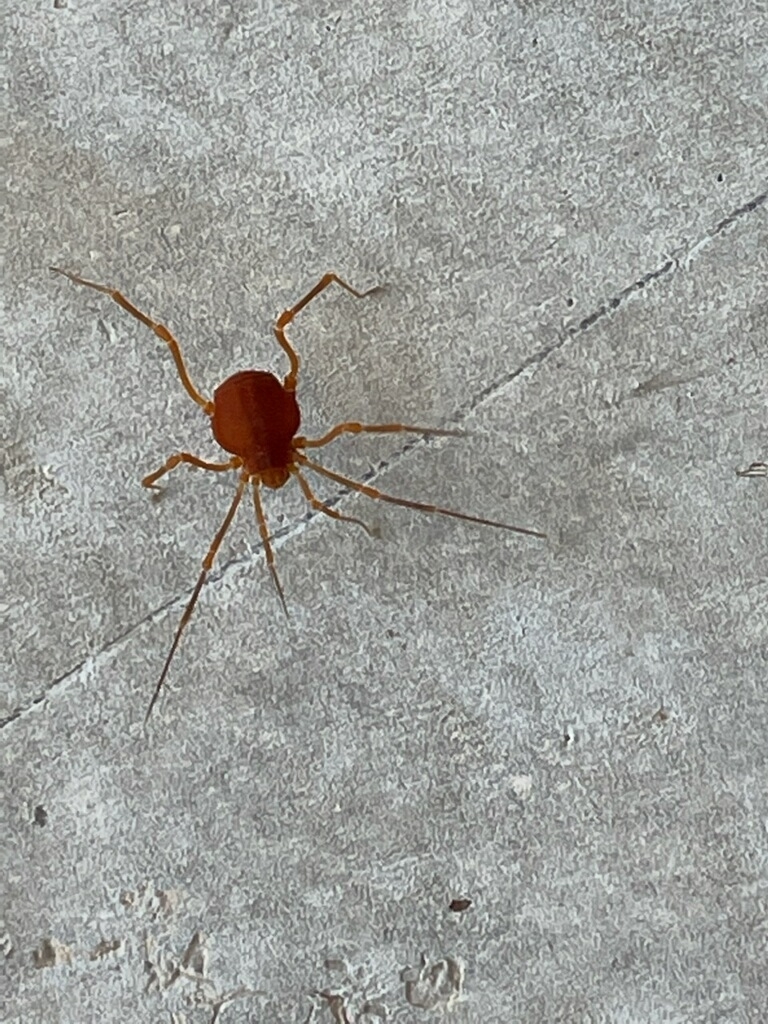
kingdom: Animalia
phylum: Arthropoda
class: Arachnida
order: Opiliones
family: Cosmetidae
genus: Libitioides
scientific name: Libitioides sayi
